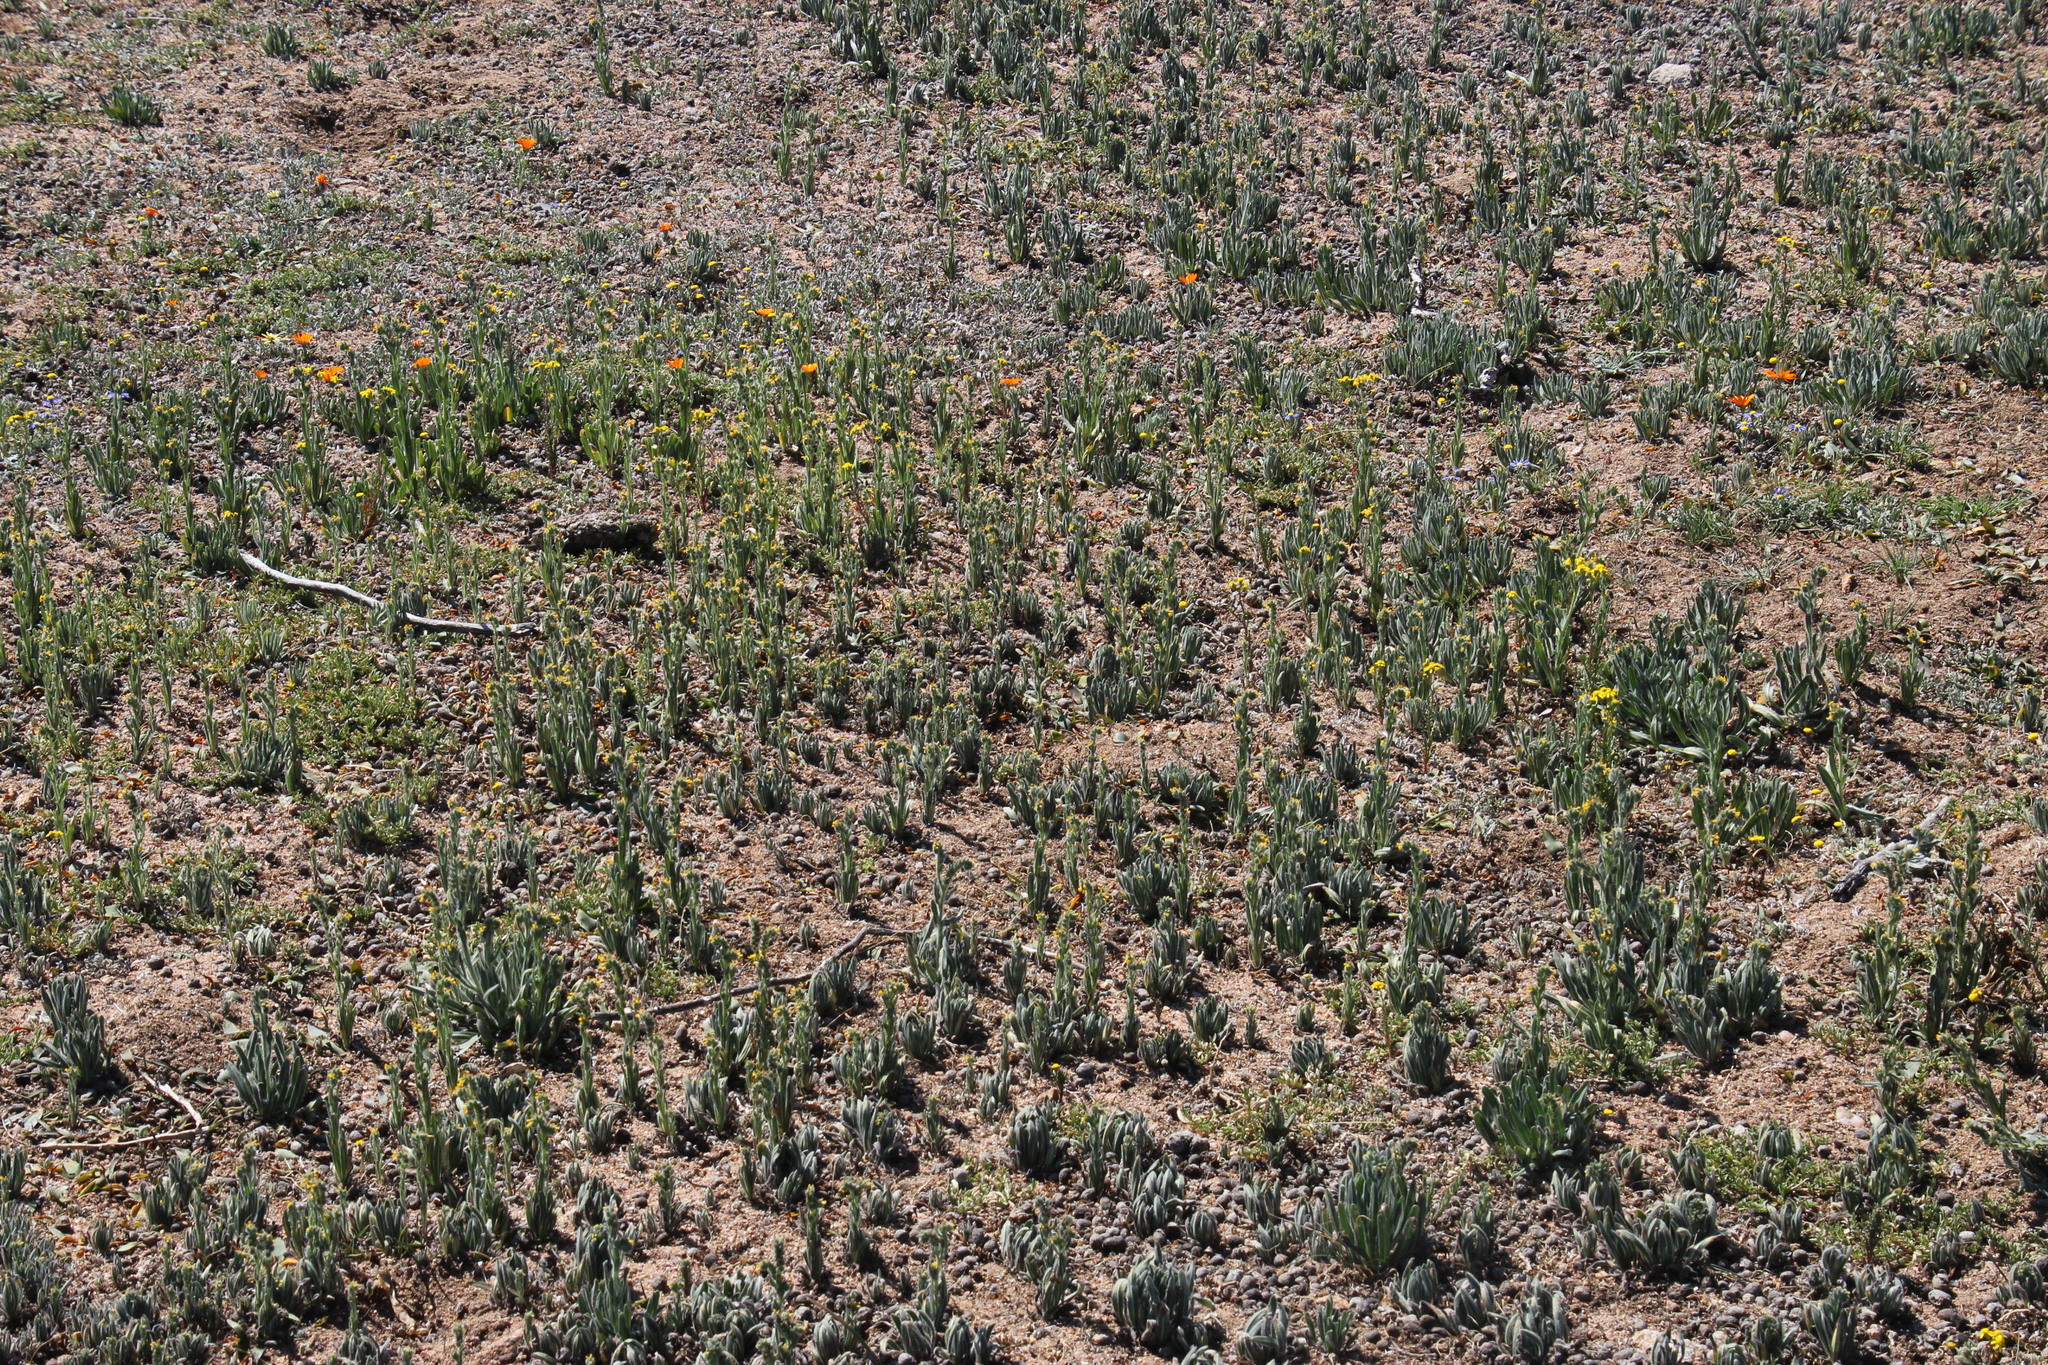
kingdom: Plantae
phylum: Tracheophyta
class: Magnoliopsida
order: Boraginales
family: Boraginaceae
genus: Amsinckia
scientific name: Amsinckia menziesii
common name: Menzies' fiddleneck
